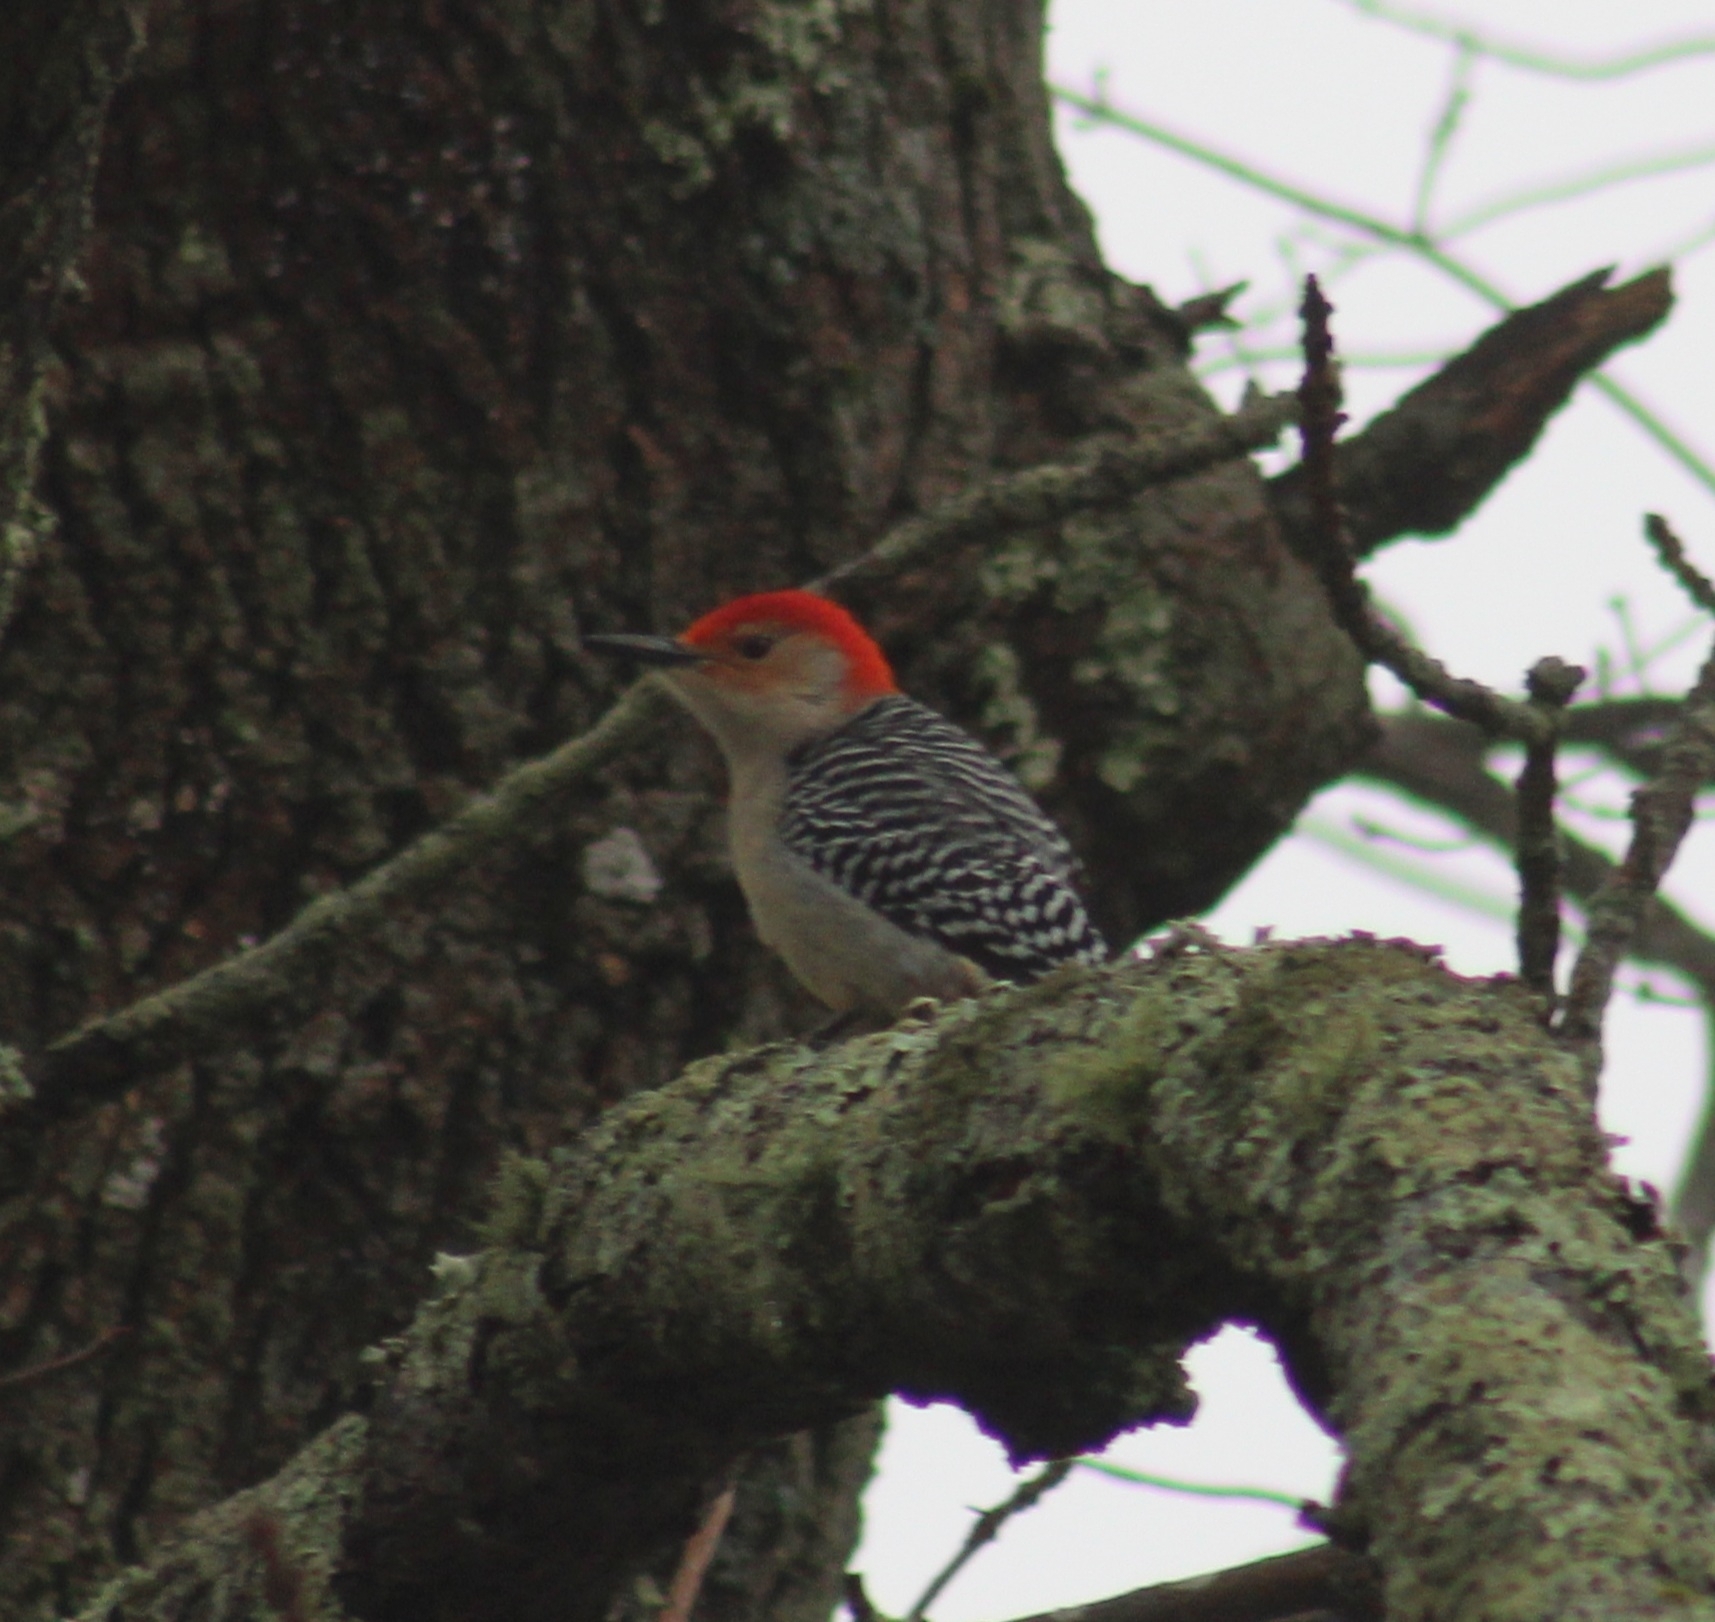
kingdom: Animalia
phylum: Chordata
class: Aves
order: Piciformes
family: Picidae
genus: Melanerpes
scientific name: Melanerpes carolinus
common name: Red-bellied woodpecker
